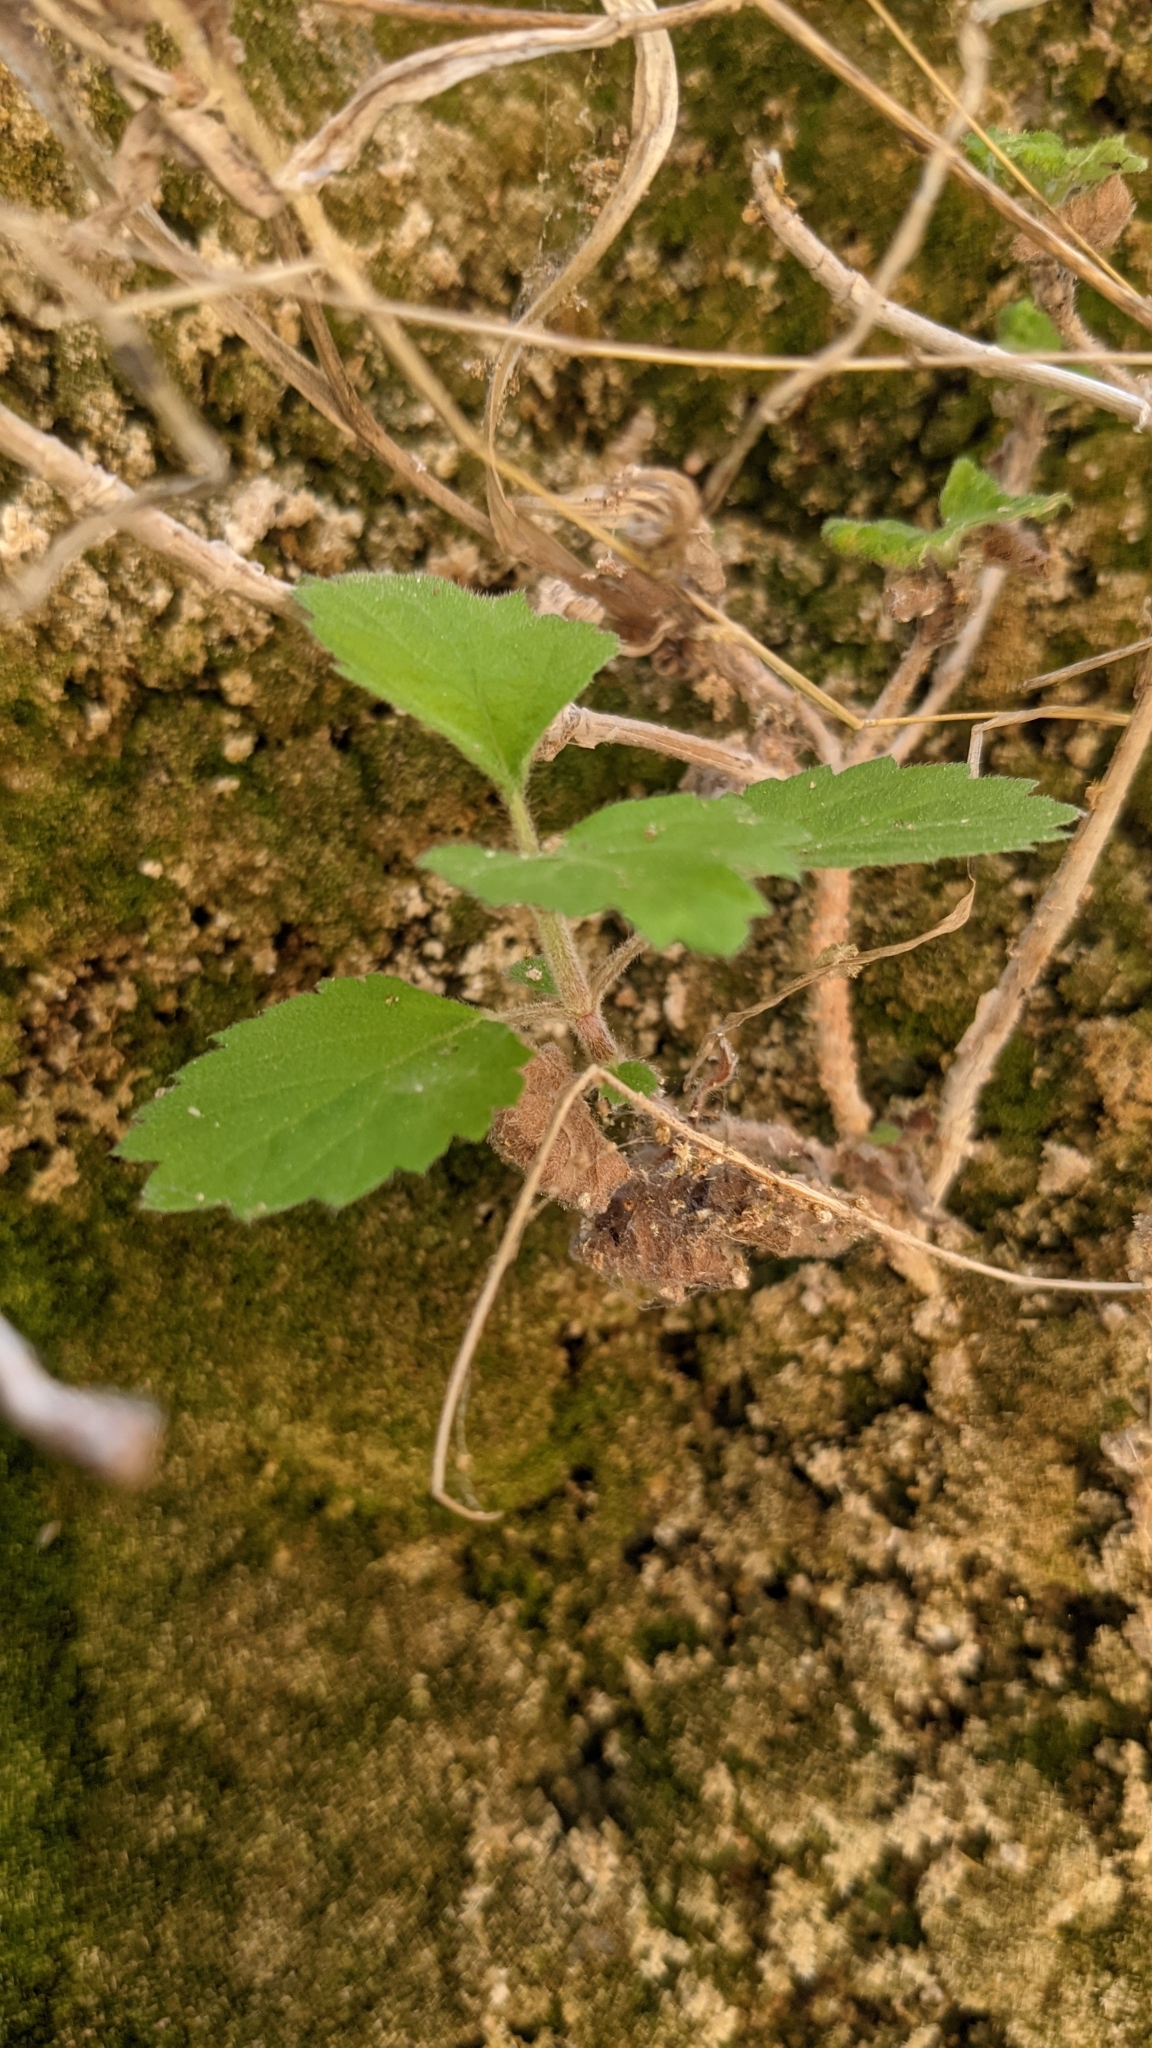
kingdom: Plantae
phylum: Tracheophyta
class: Magnoliopsida
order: Cornales
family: Hydrangeaceae
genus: Jamesia
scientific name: Jamesia americana
